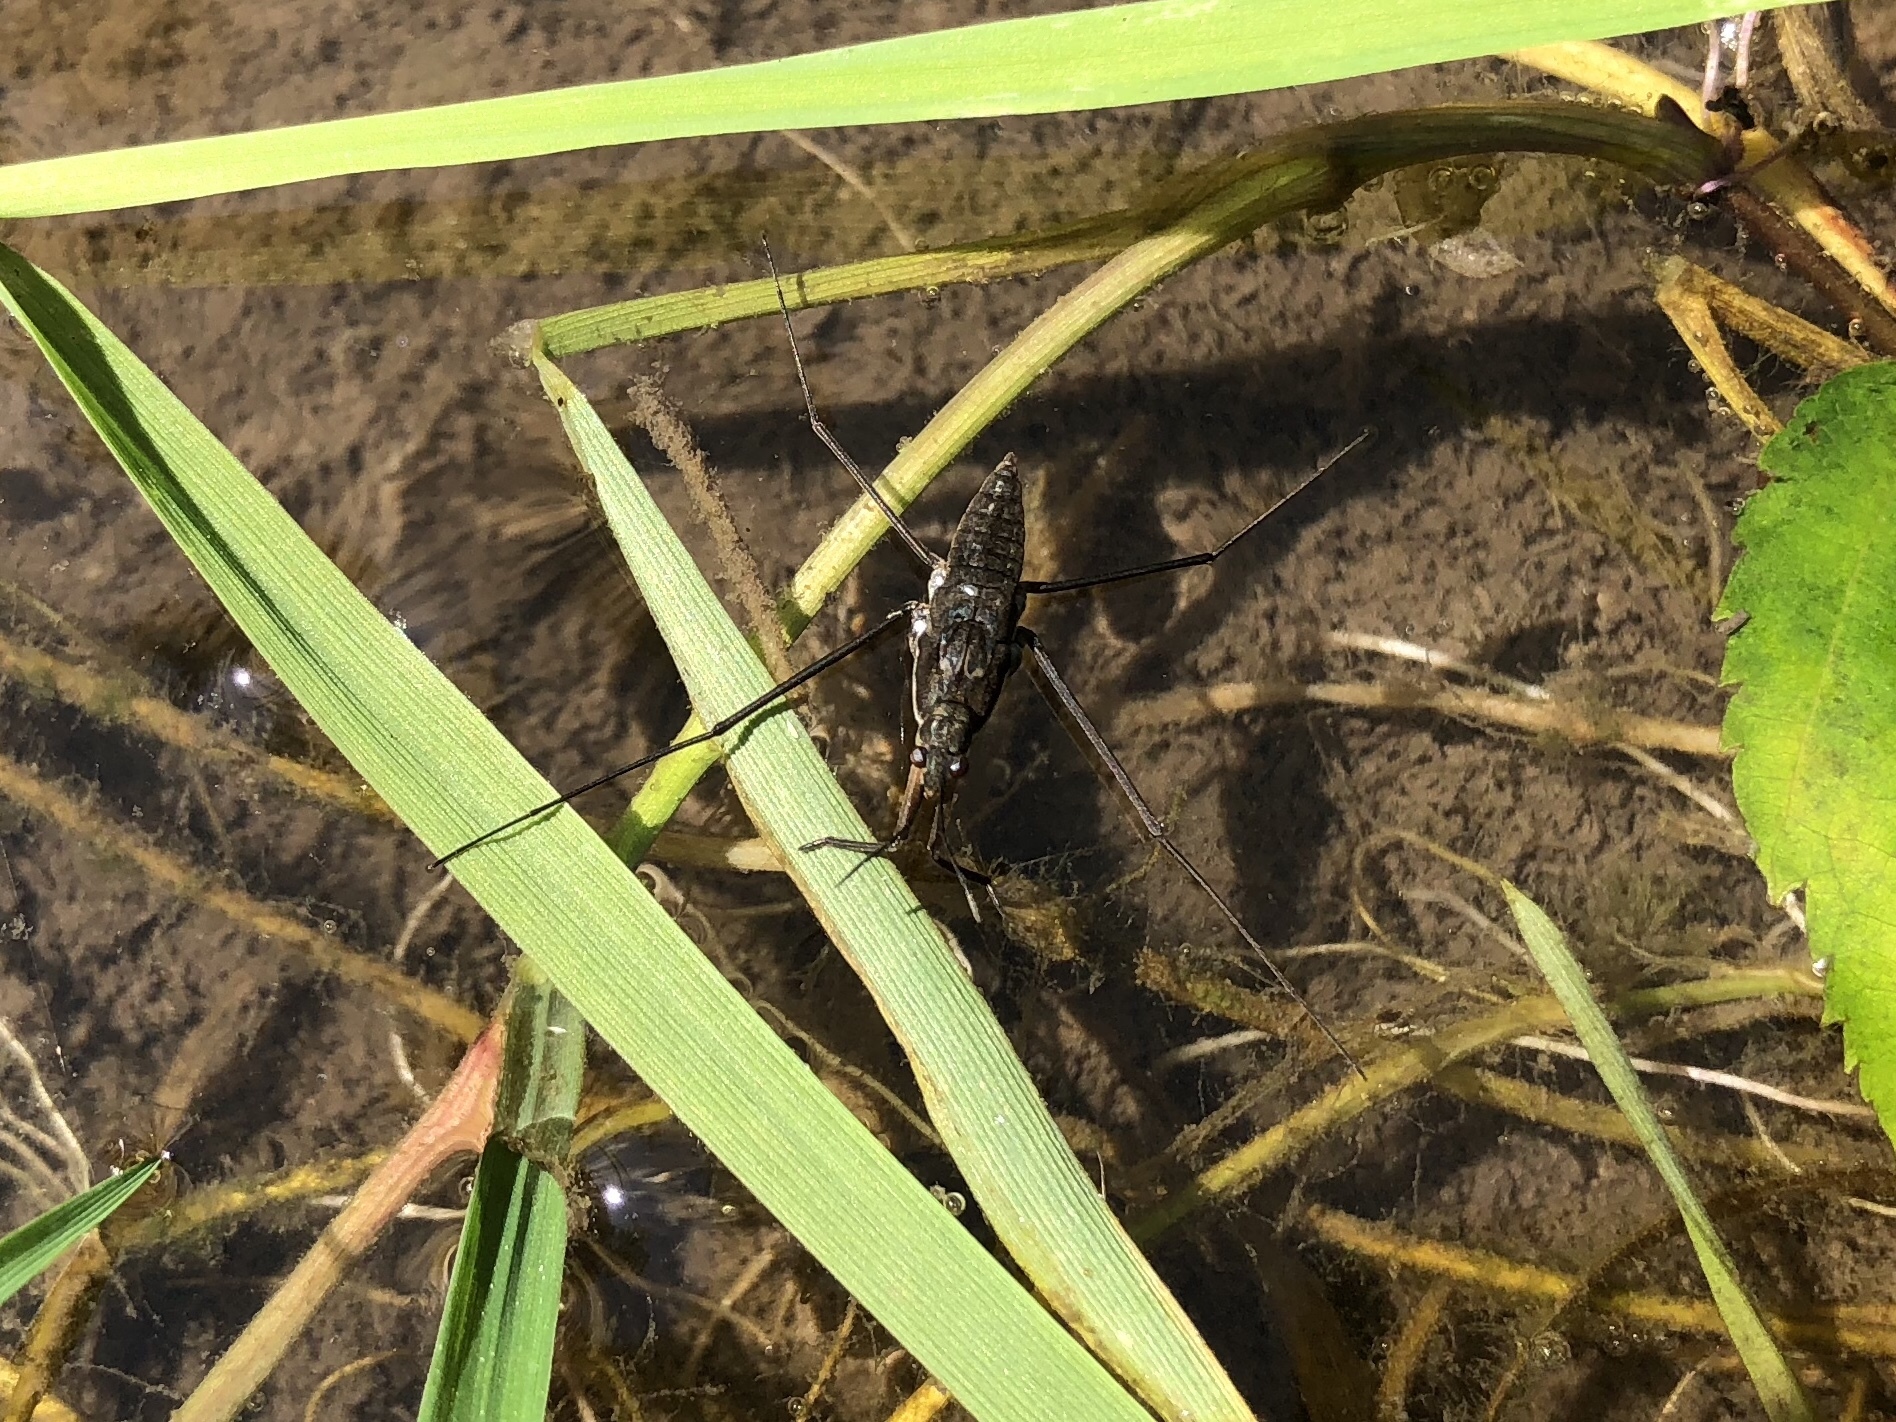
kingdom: Animalia
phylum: Arthropoda
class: Insecta
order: Hemiptera
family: Gerridae
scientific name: Gerridae
